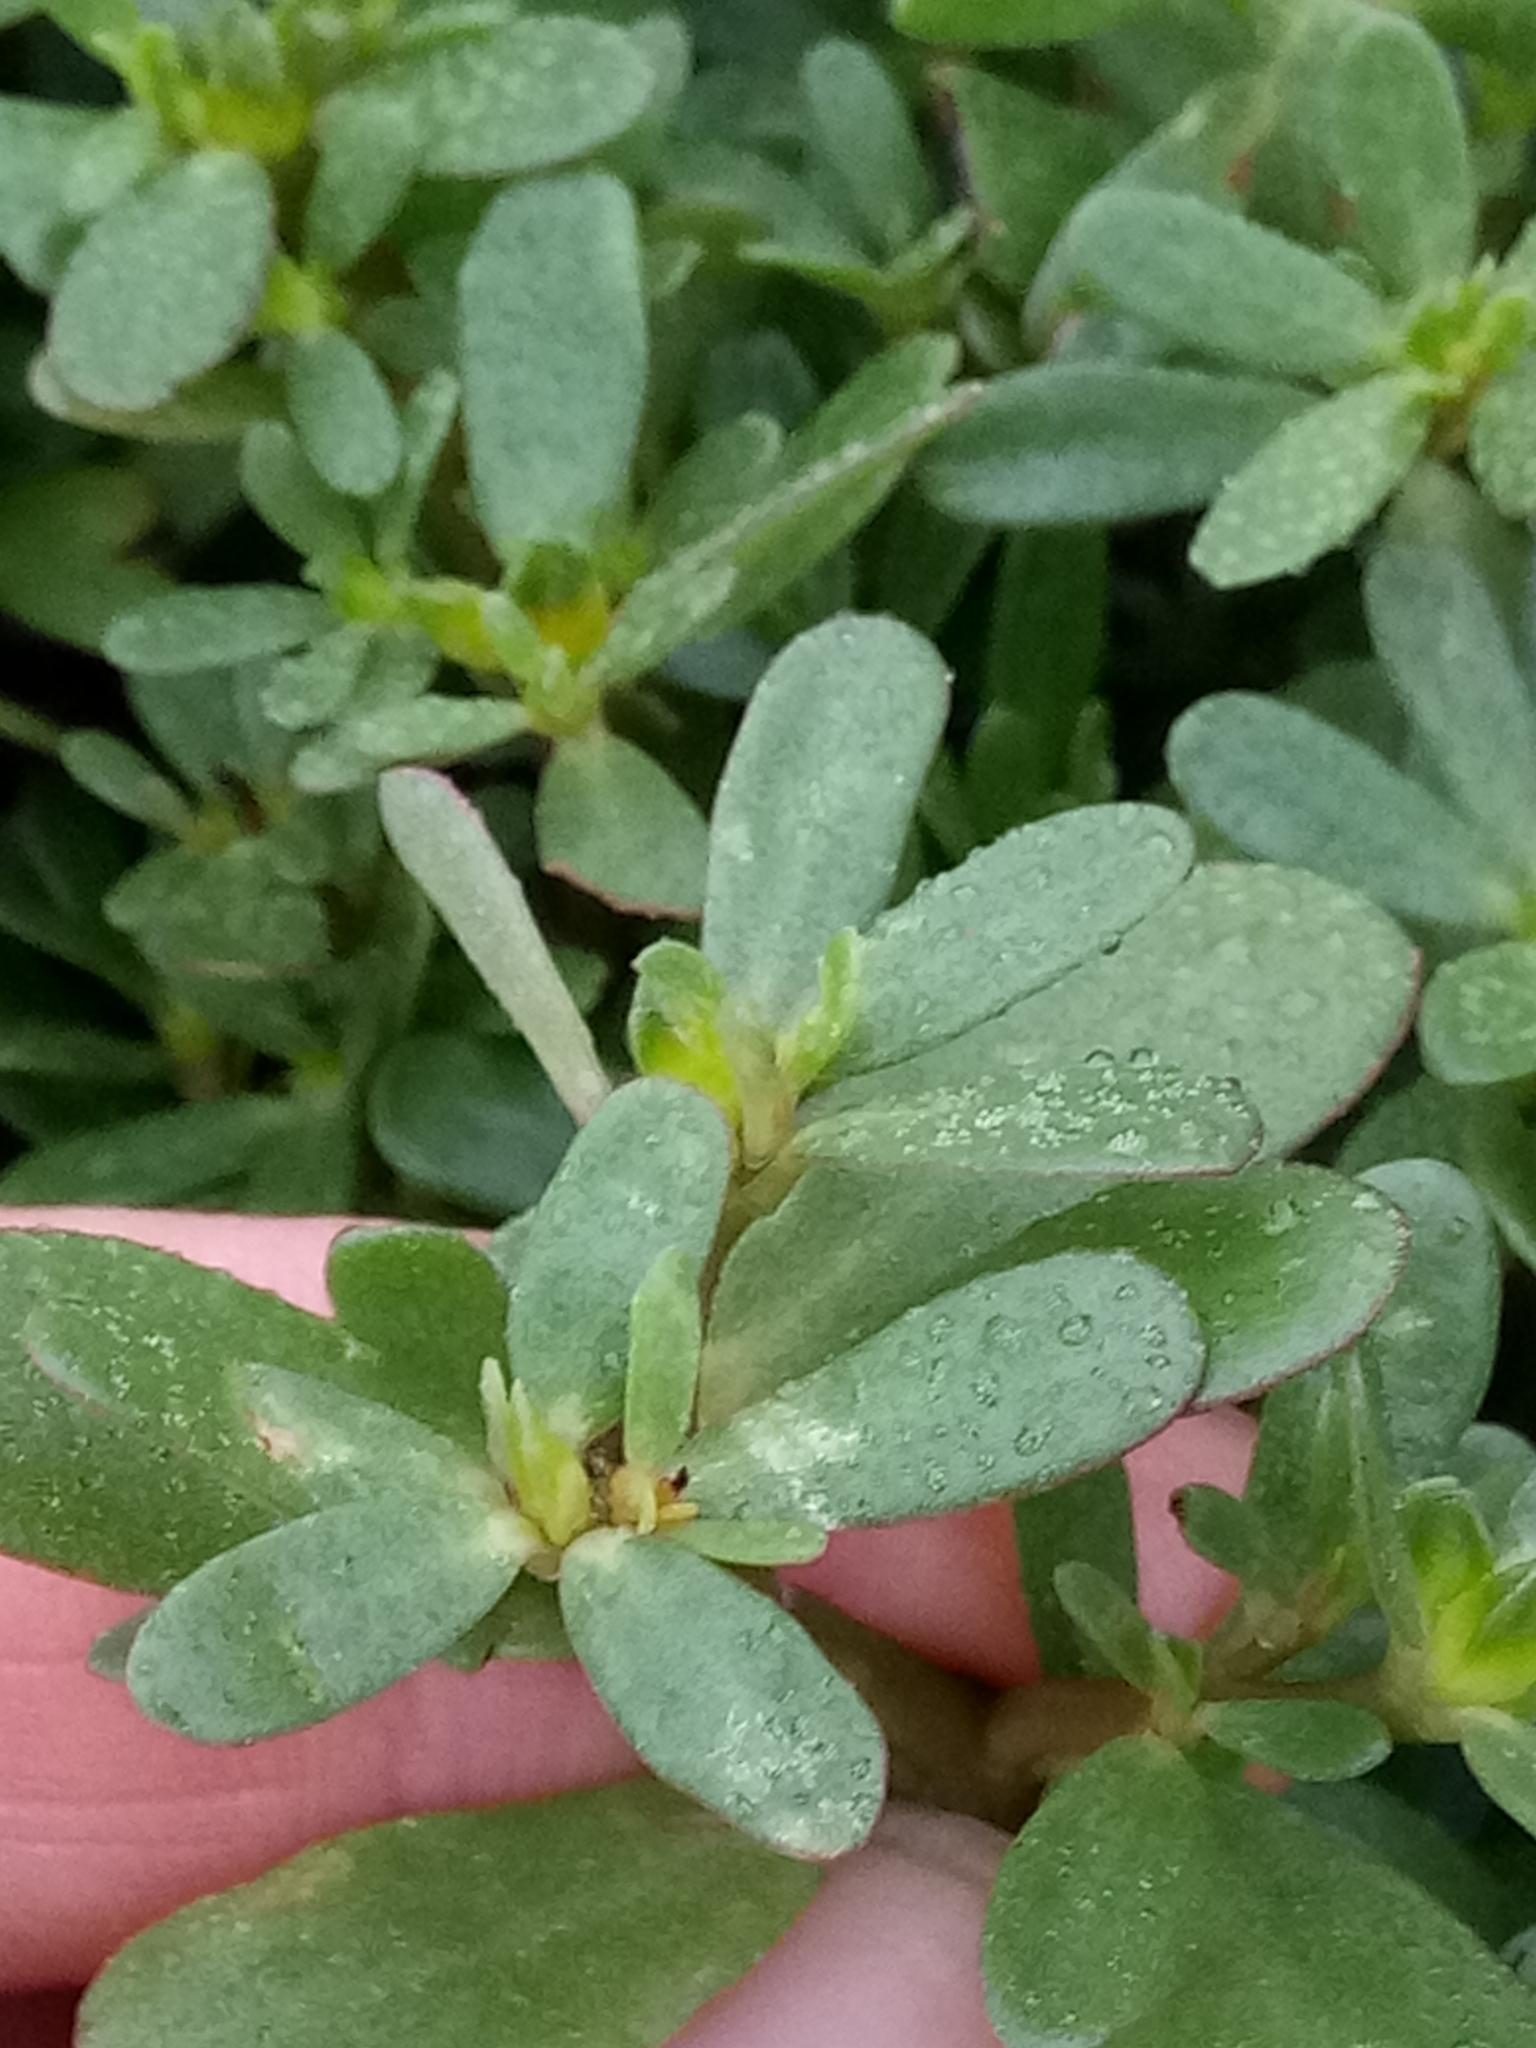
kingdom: Plantae
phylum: Tracheophyta
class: Magnoliopsida
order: Caryophyllales
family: Portulacaceae
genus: Portulaca
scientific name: Portulaca oleracea
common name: Common purslane
